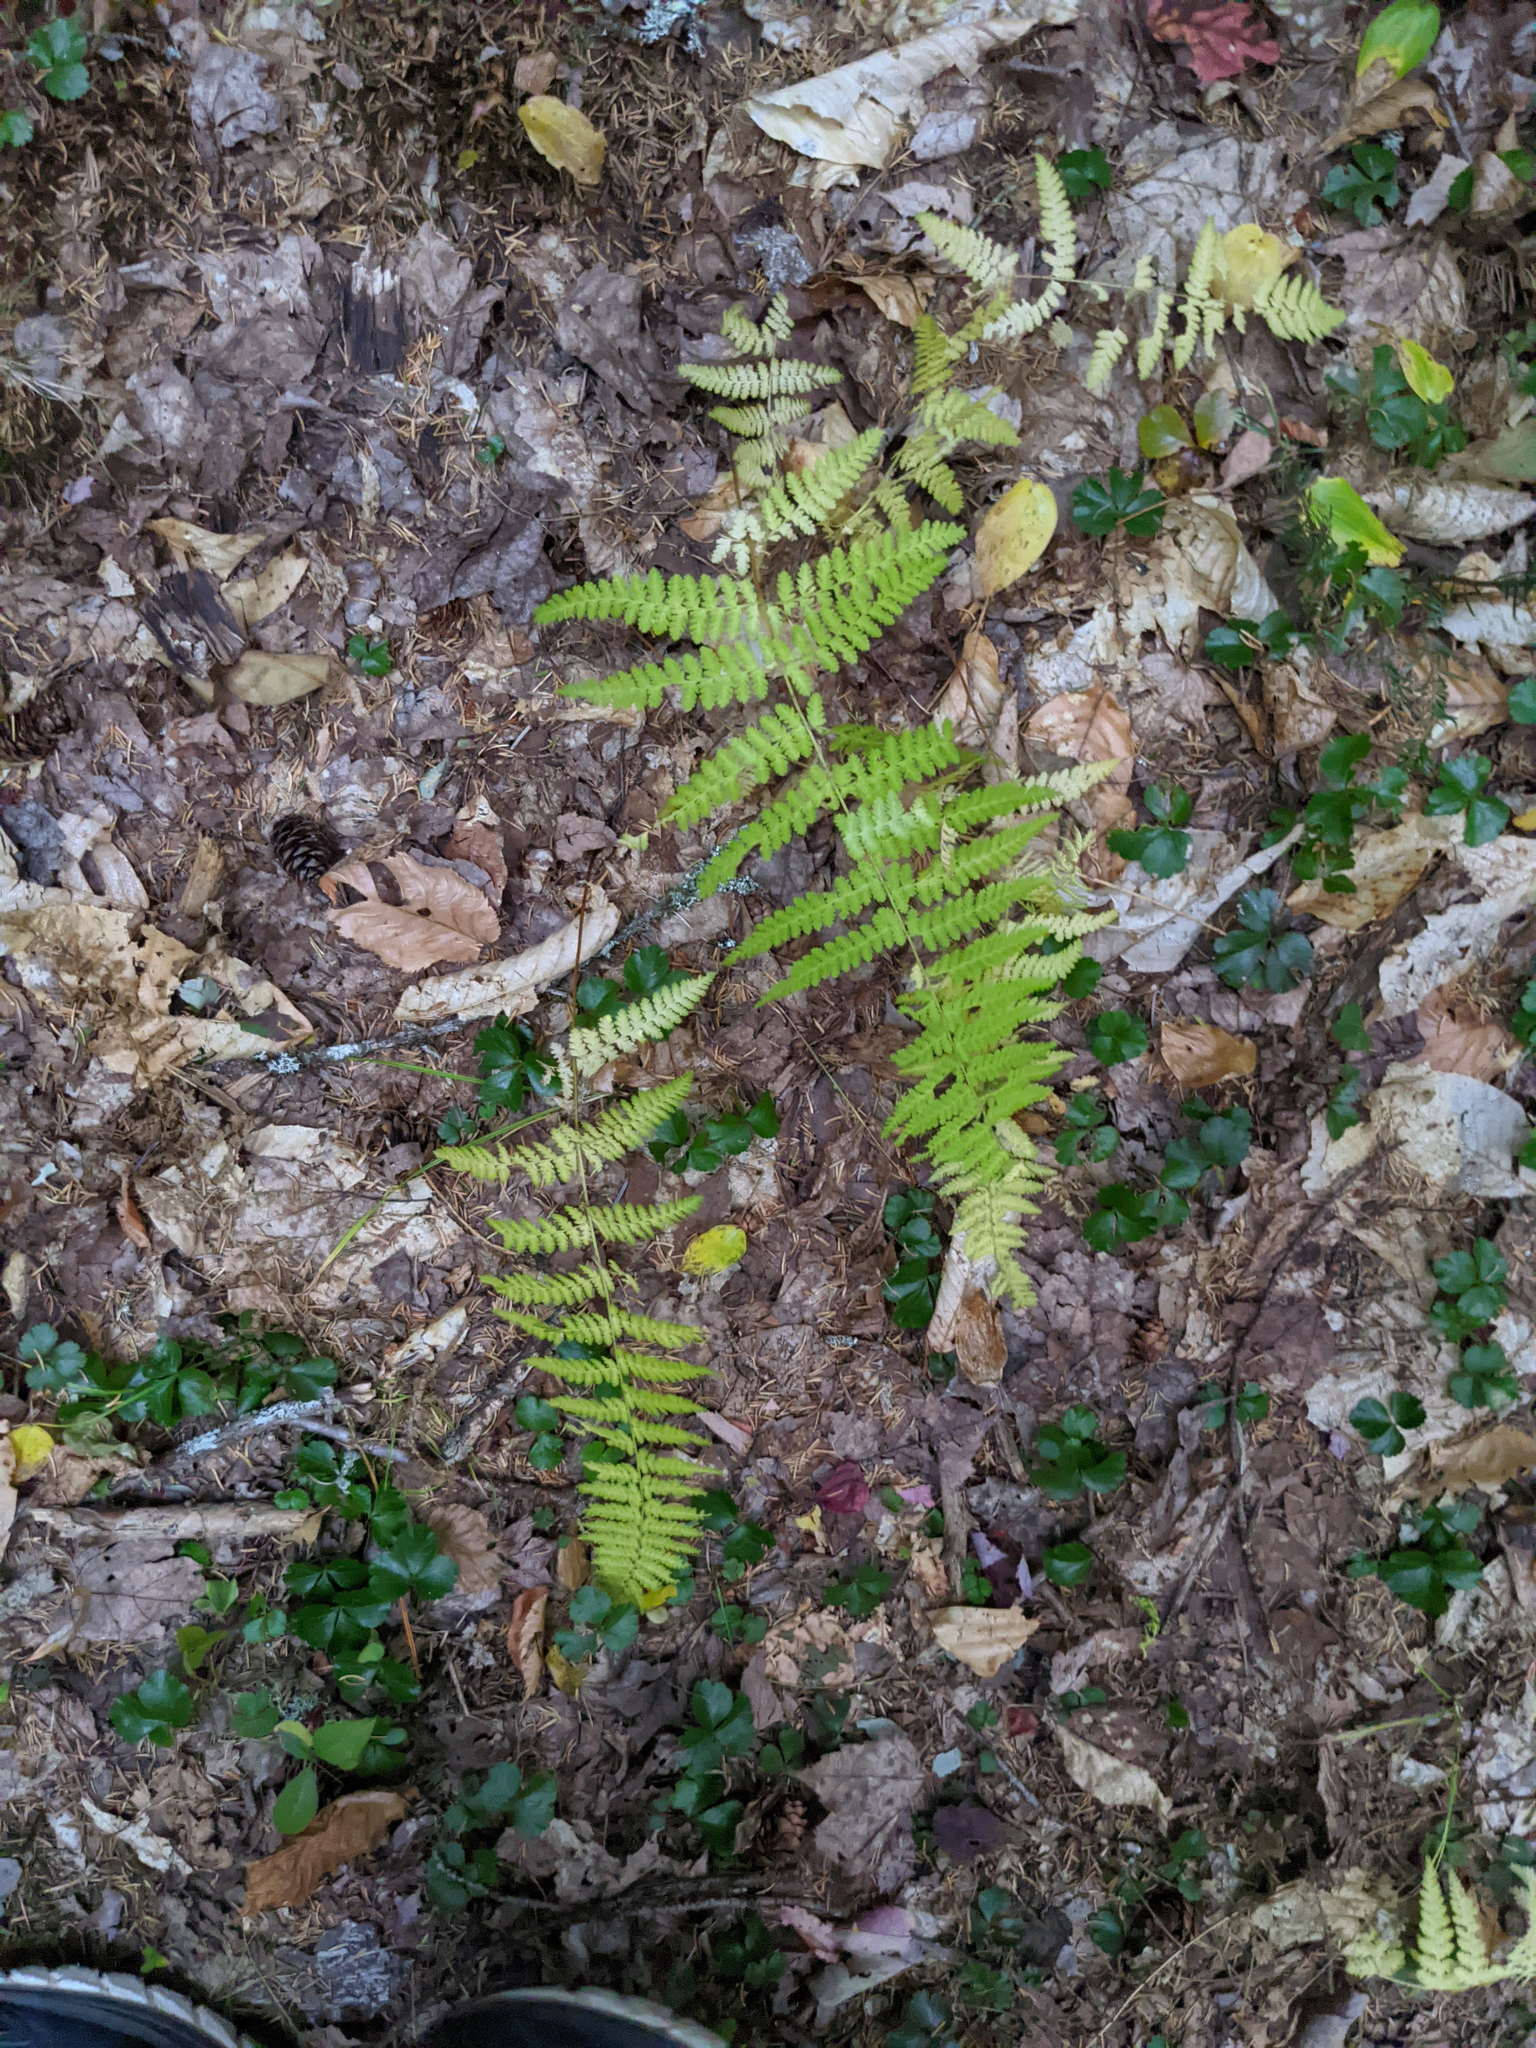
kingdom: Plantae
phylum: Tracheophyta
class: Polypodiopsida
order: Polypodiales
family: Dennstaedtiaceae
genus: Sitobolium
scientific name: Sitobolium punctilobum
